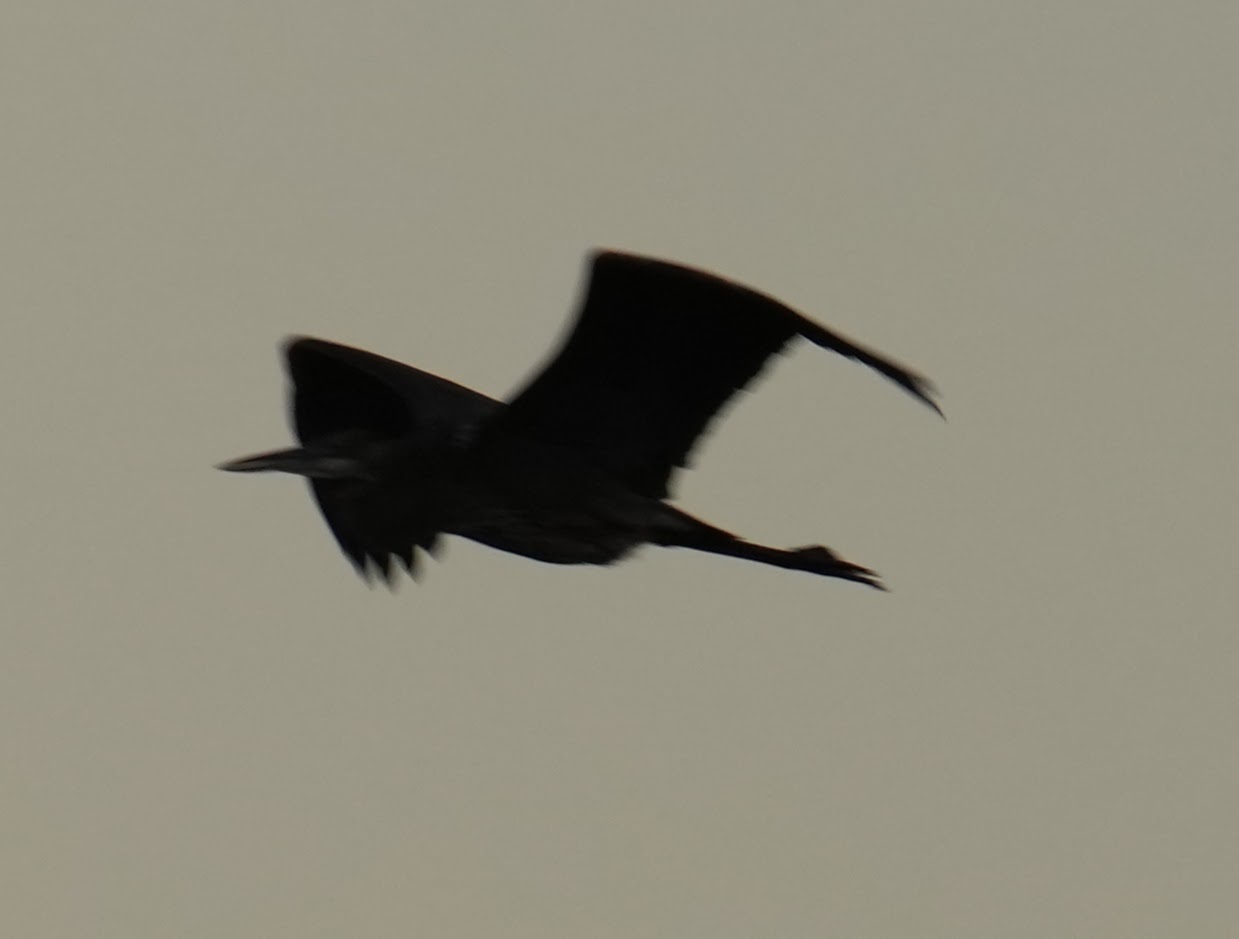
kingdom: Animalia
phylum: Chordata
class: Aves
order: Pelecaniformes
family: Ardeidae
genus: Ardea
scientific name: Ardea herodias
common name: Great blue heron
